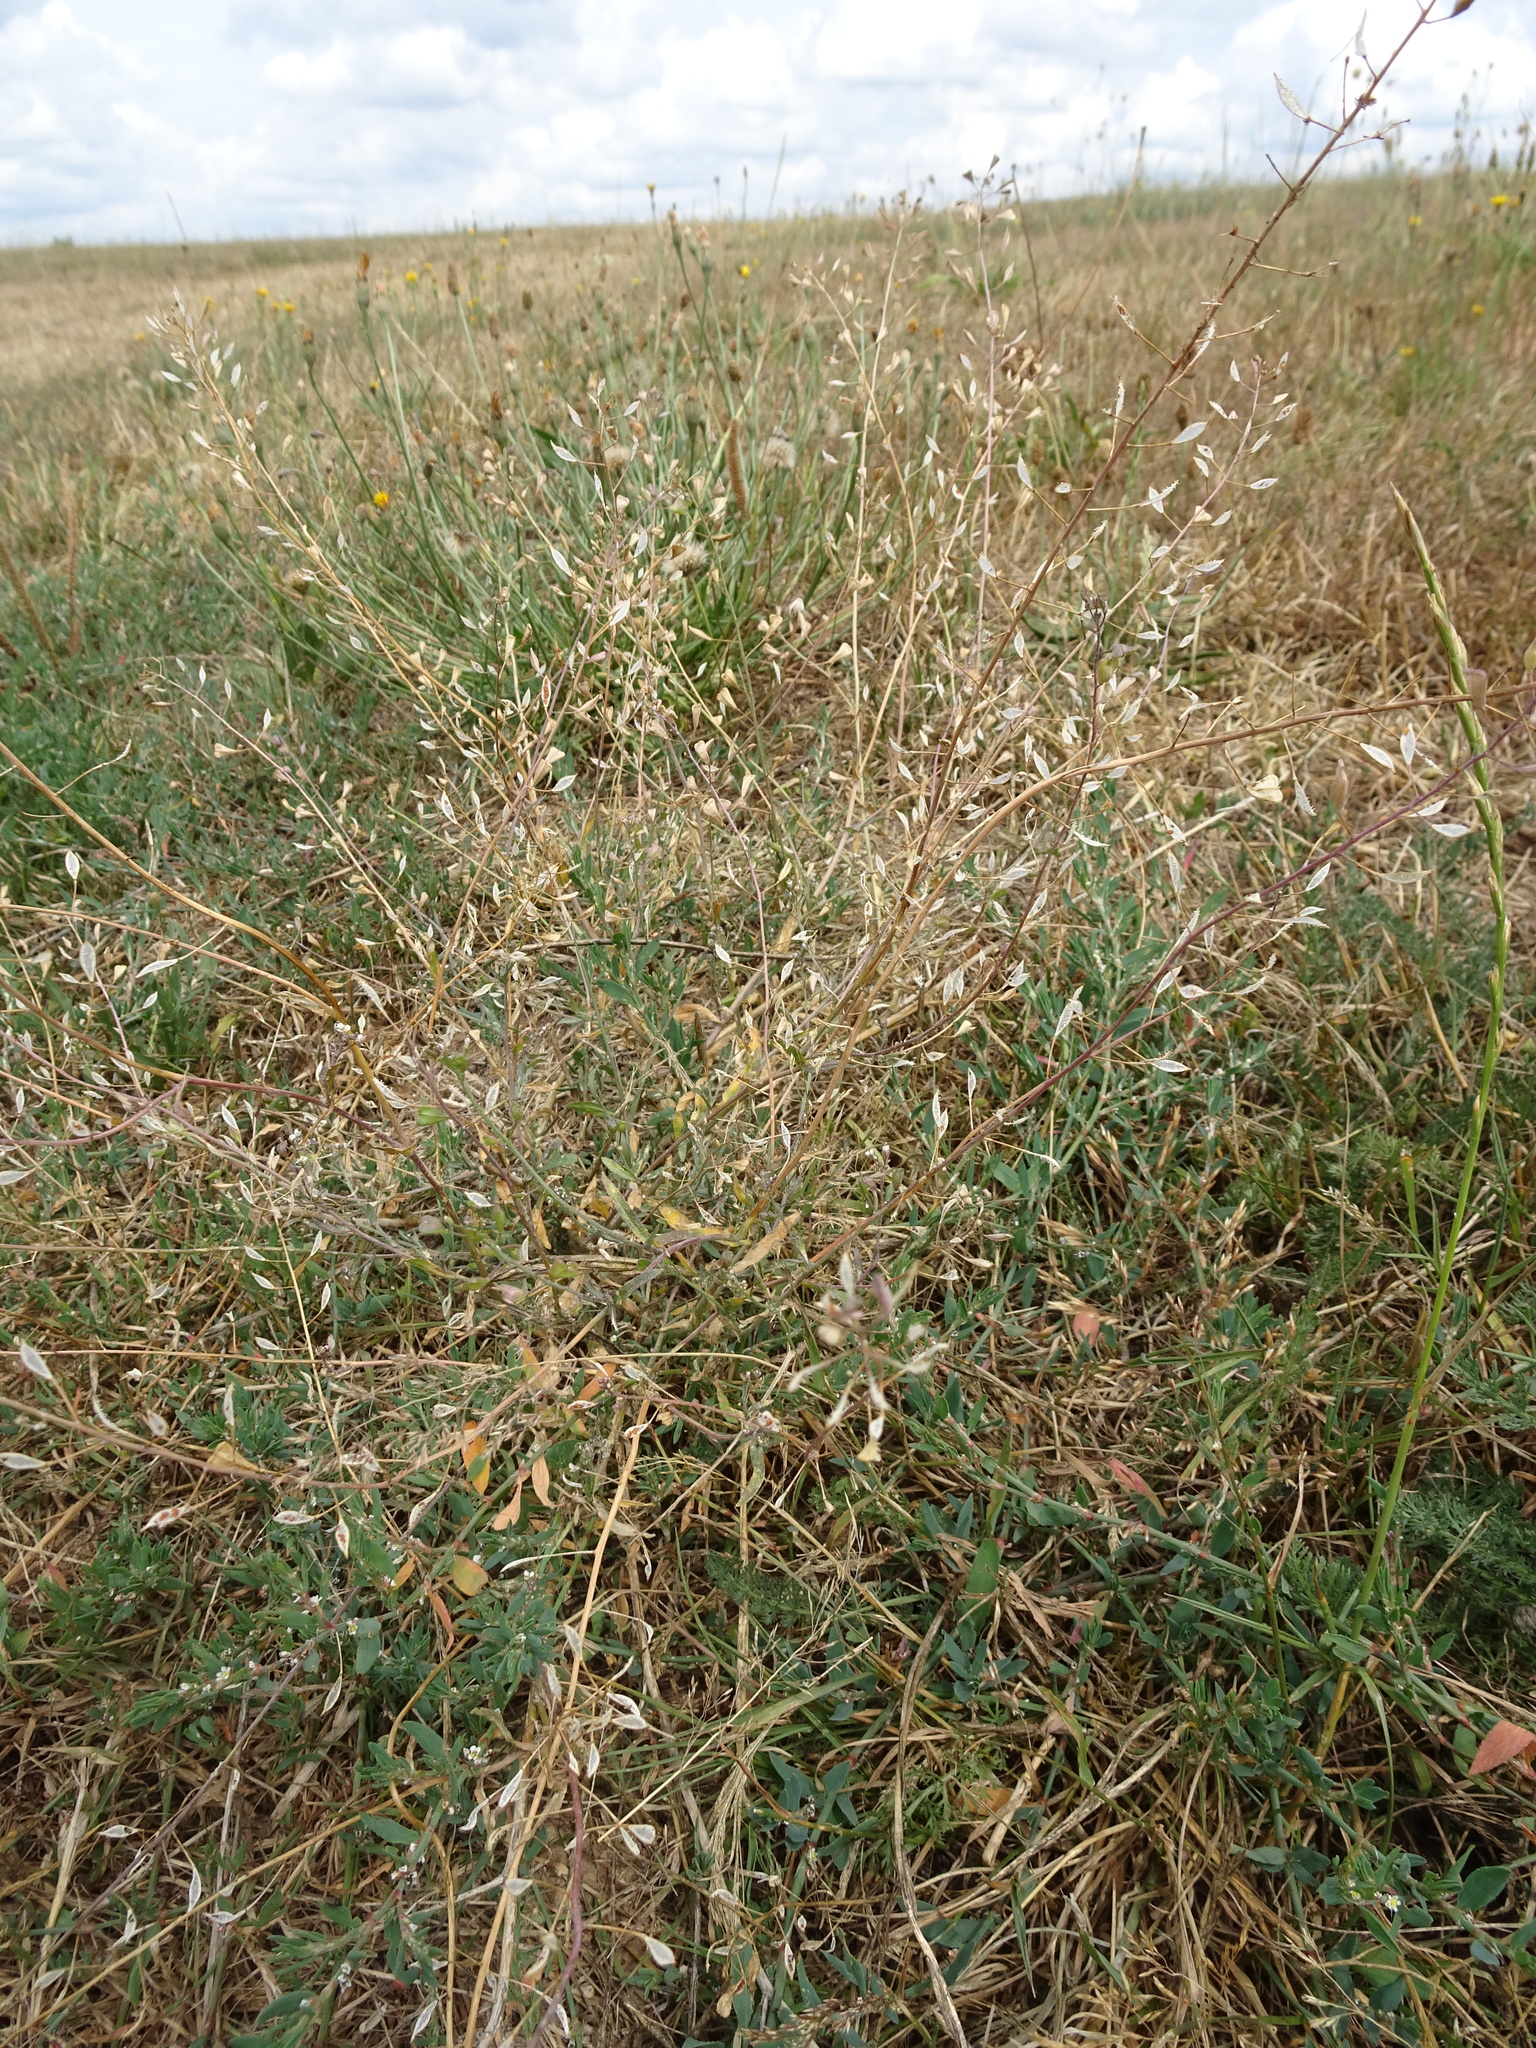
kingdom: Plantae
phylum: Tracheophyta
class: Magnoliopsida
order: Brassicales
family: Brassicaceae
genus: Capsella
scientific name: Capsella bursa-pastoris
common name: Shepherd's purse
